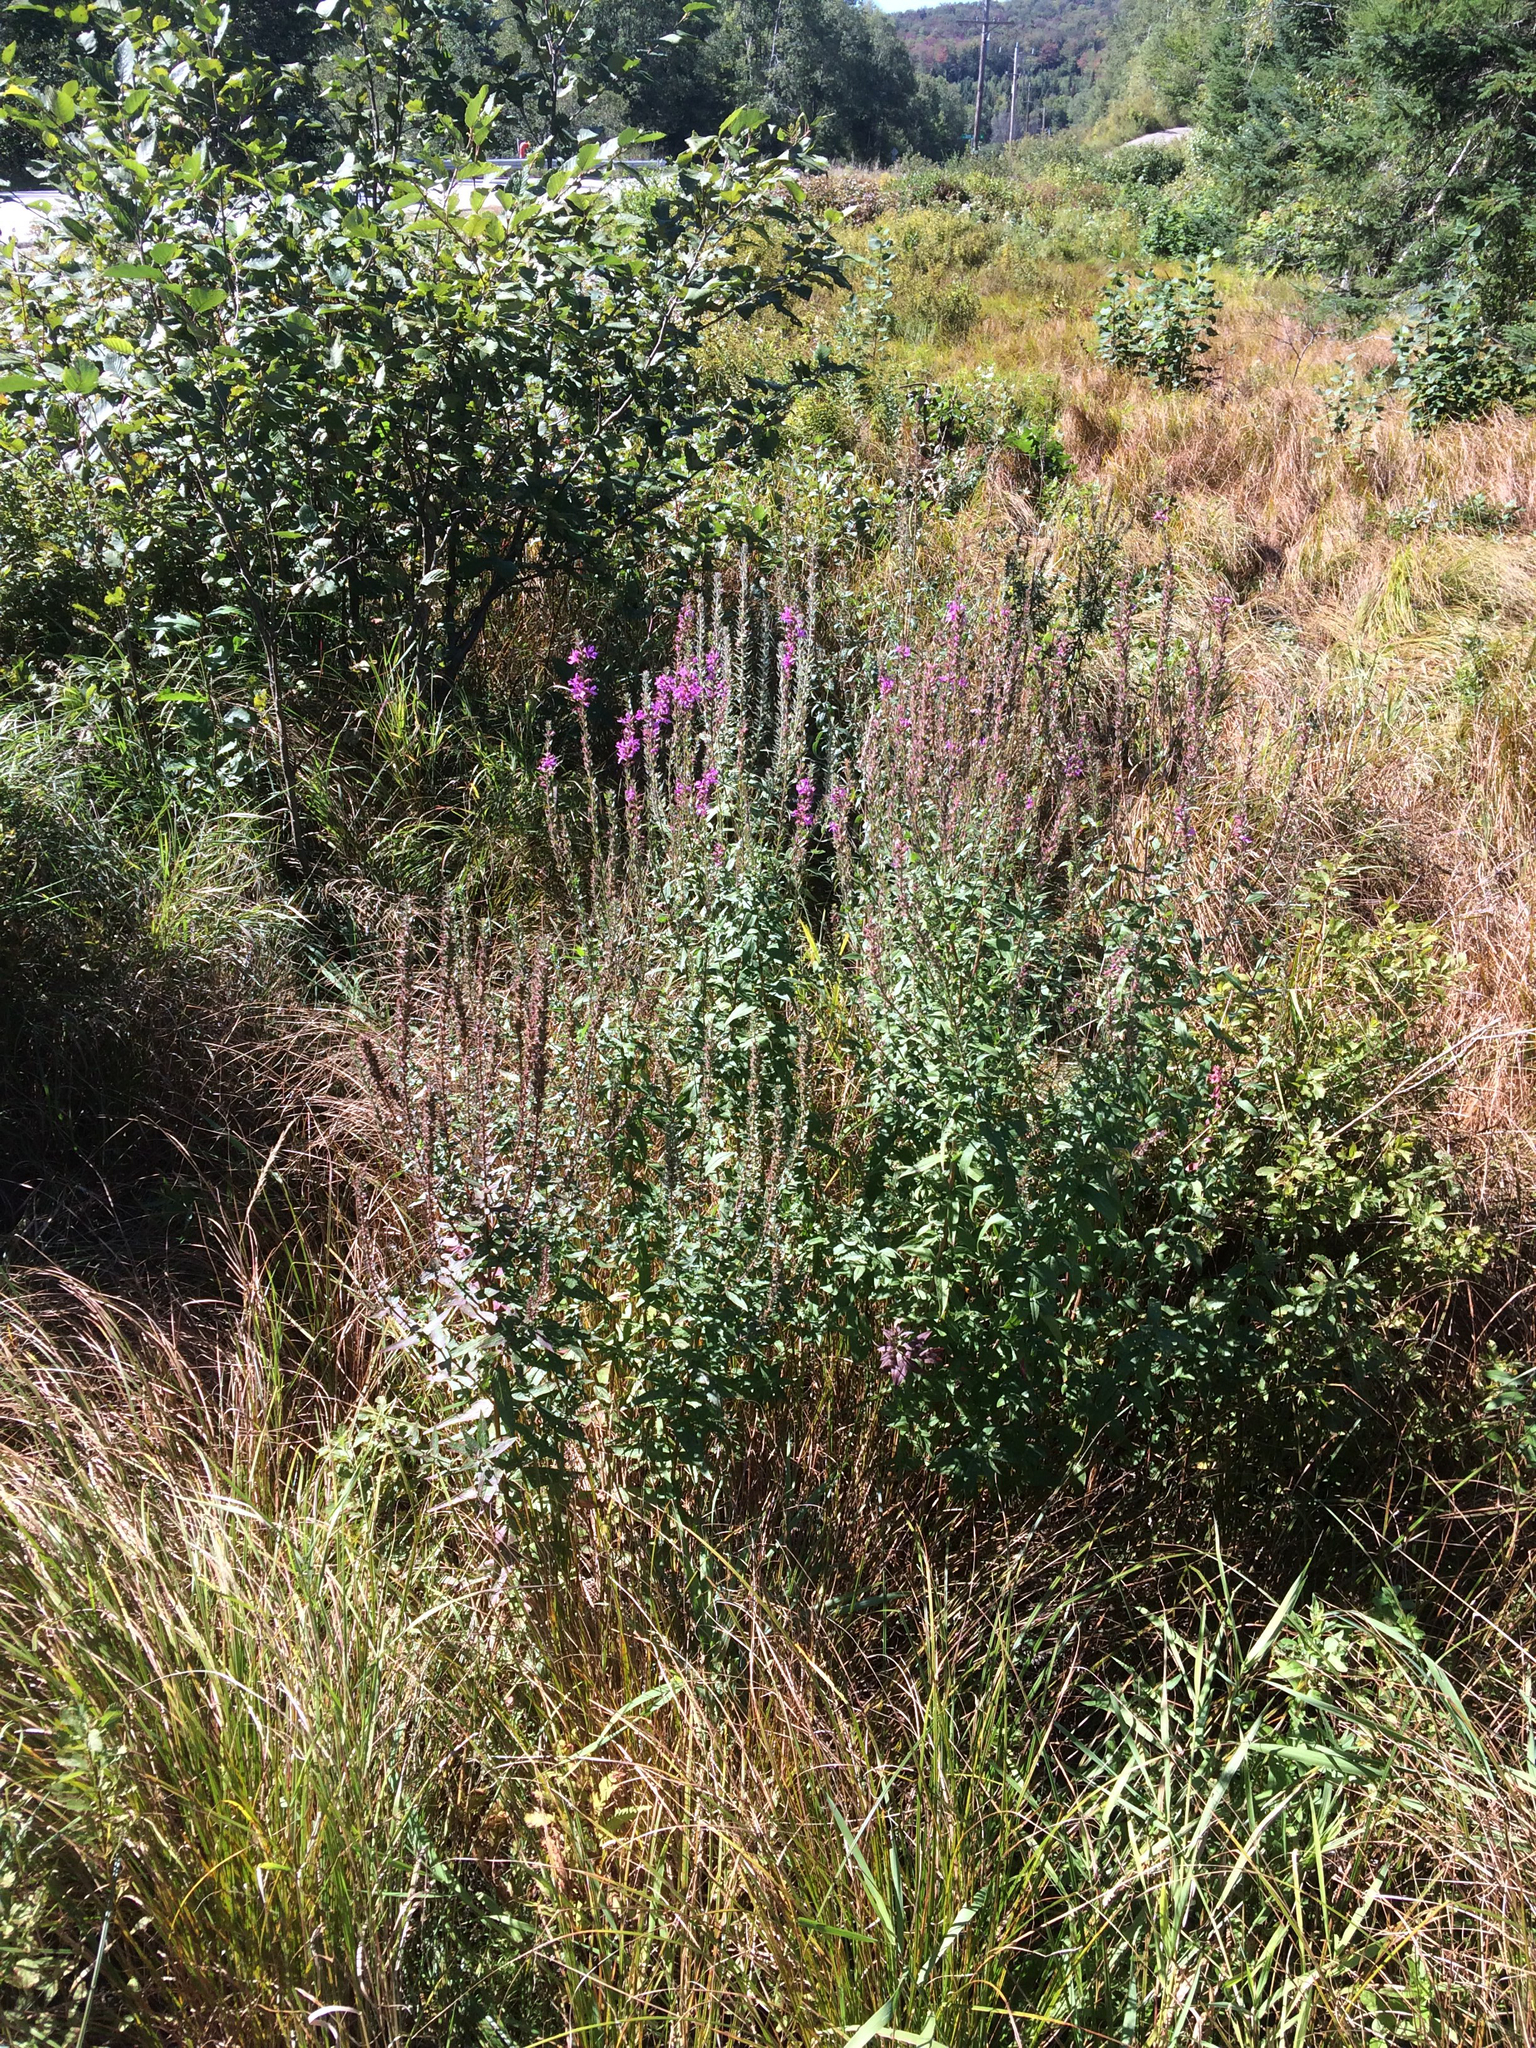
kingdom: Plantae
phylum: Tracheophyta
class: Magnoliopsida
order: Myrtales
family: Lythraceae
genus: Lythrum
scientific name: Lythrum salicaria
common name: Purple loosestrife
